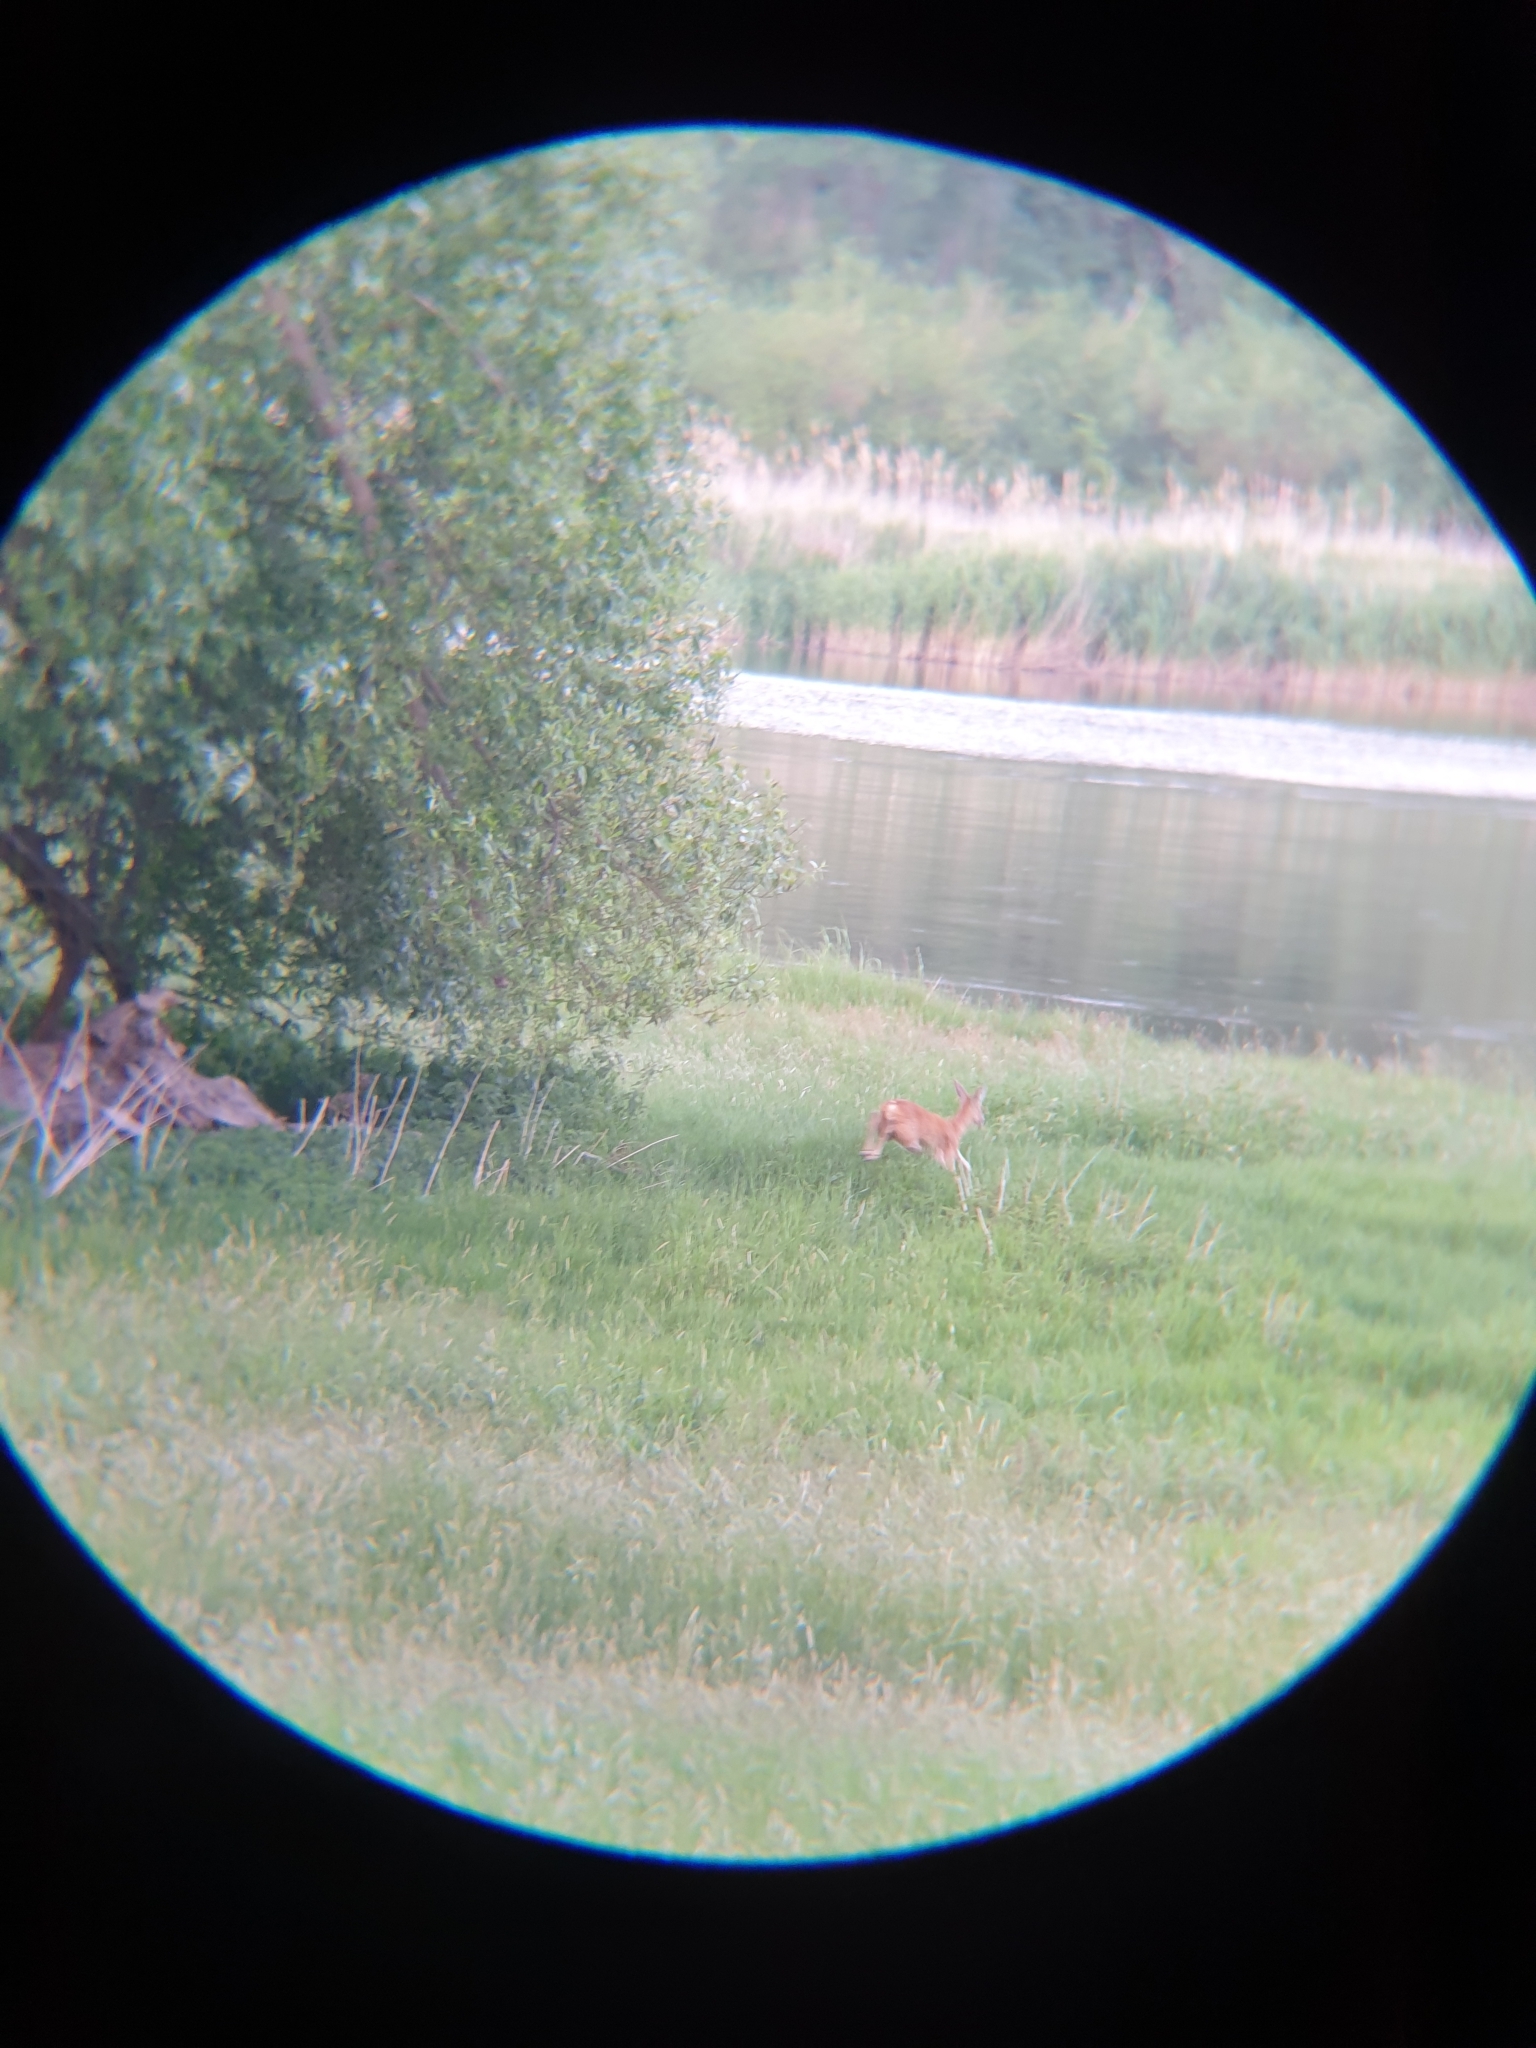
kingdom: Animalia
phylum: Chordata
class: Mammalia
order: Artiodactyla
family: Cervidae
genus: Capreolus
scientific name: Capreolus capreolus
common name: Western roe deer
